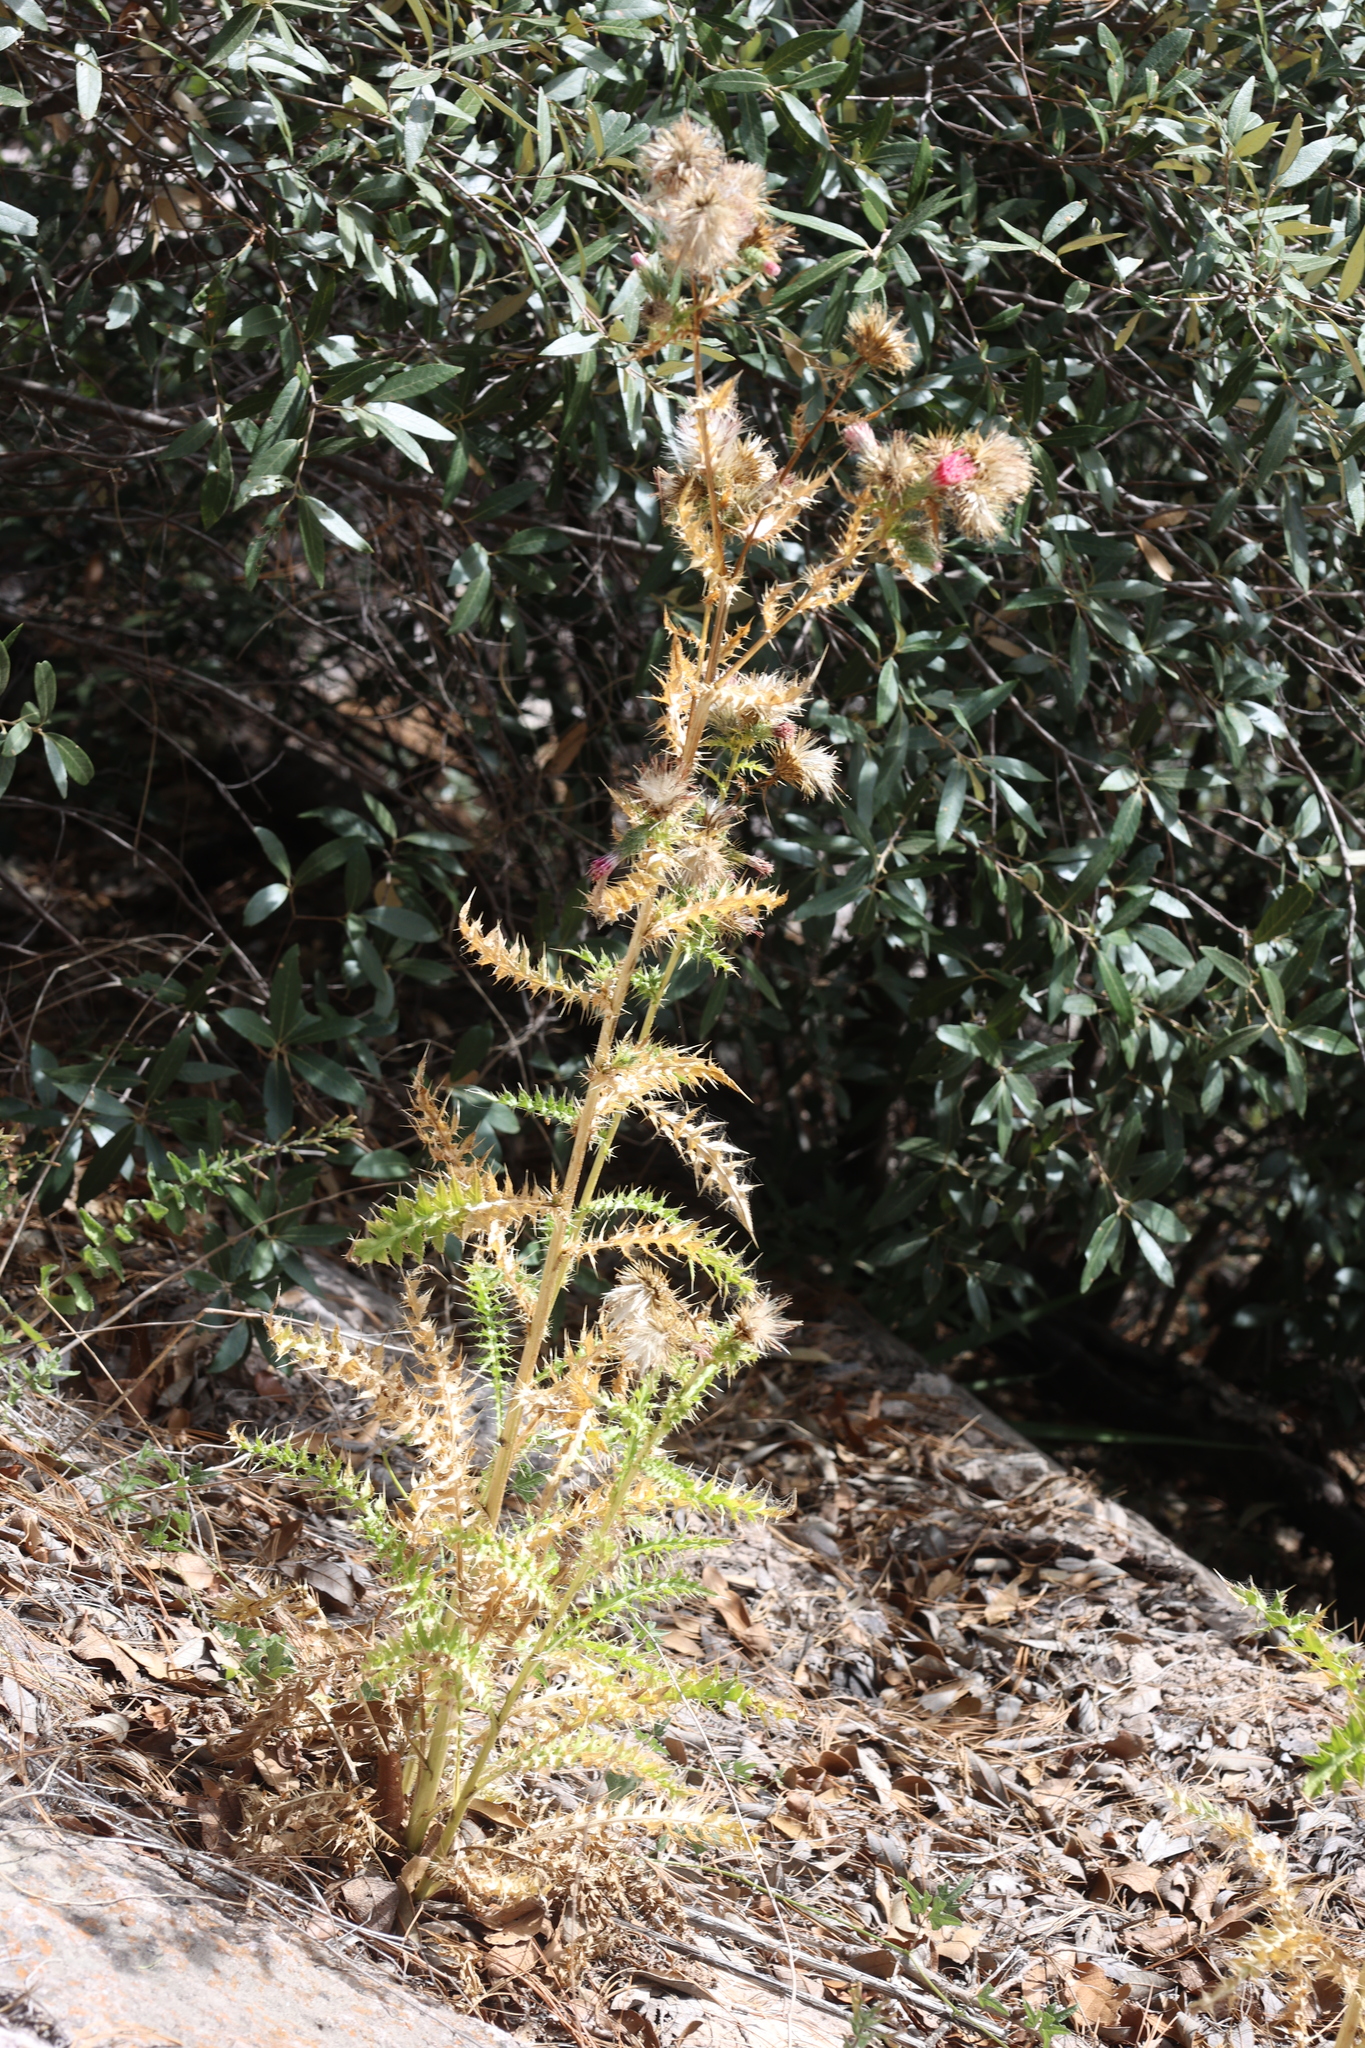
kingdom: Plantae
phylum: Tracheophyta
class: Magnoliopsida
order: Asterales
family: Asteraceae
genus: Cirsium
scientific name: Cirsium arizonicum
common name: Arizona thistle
